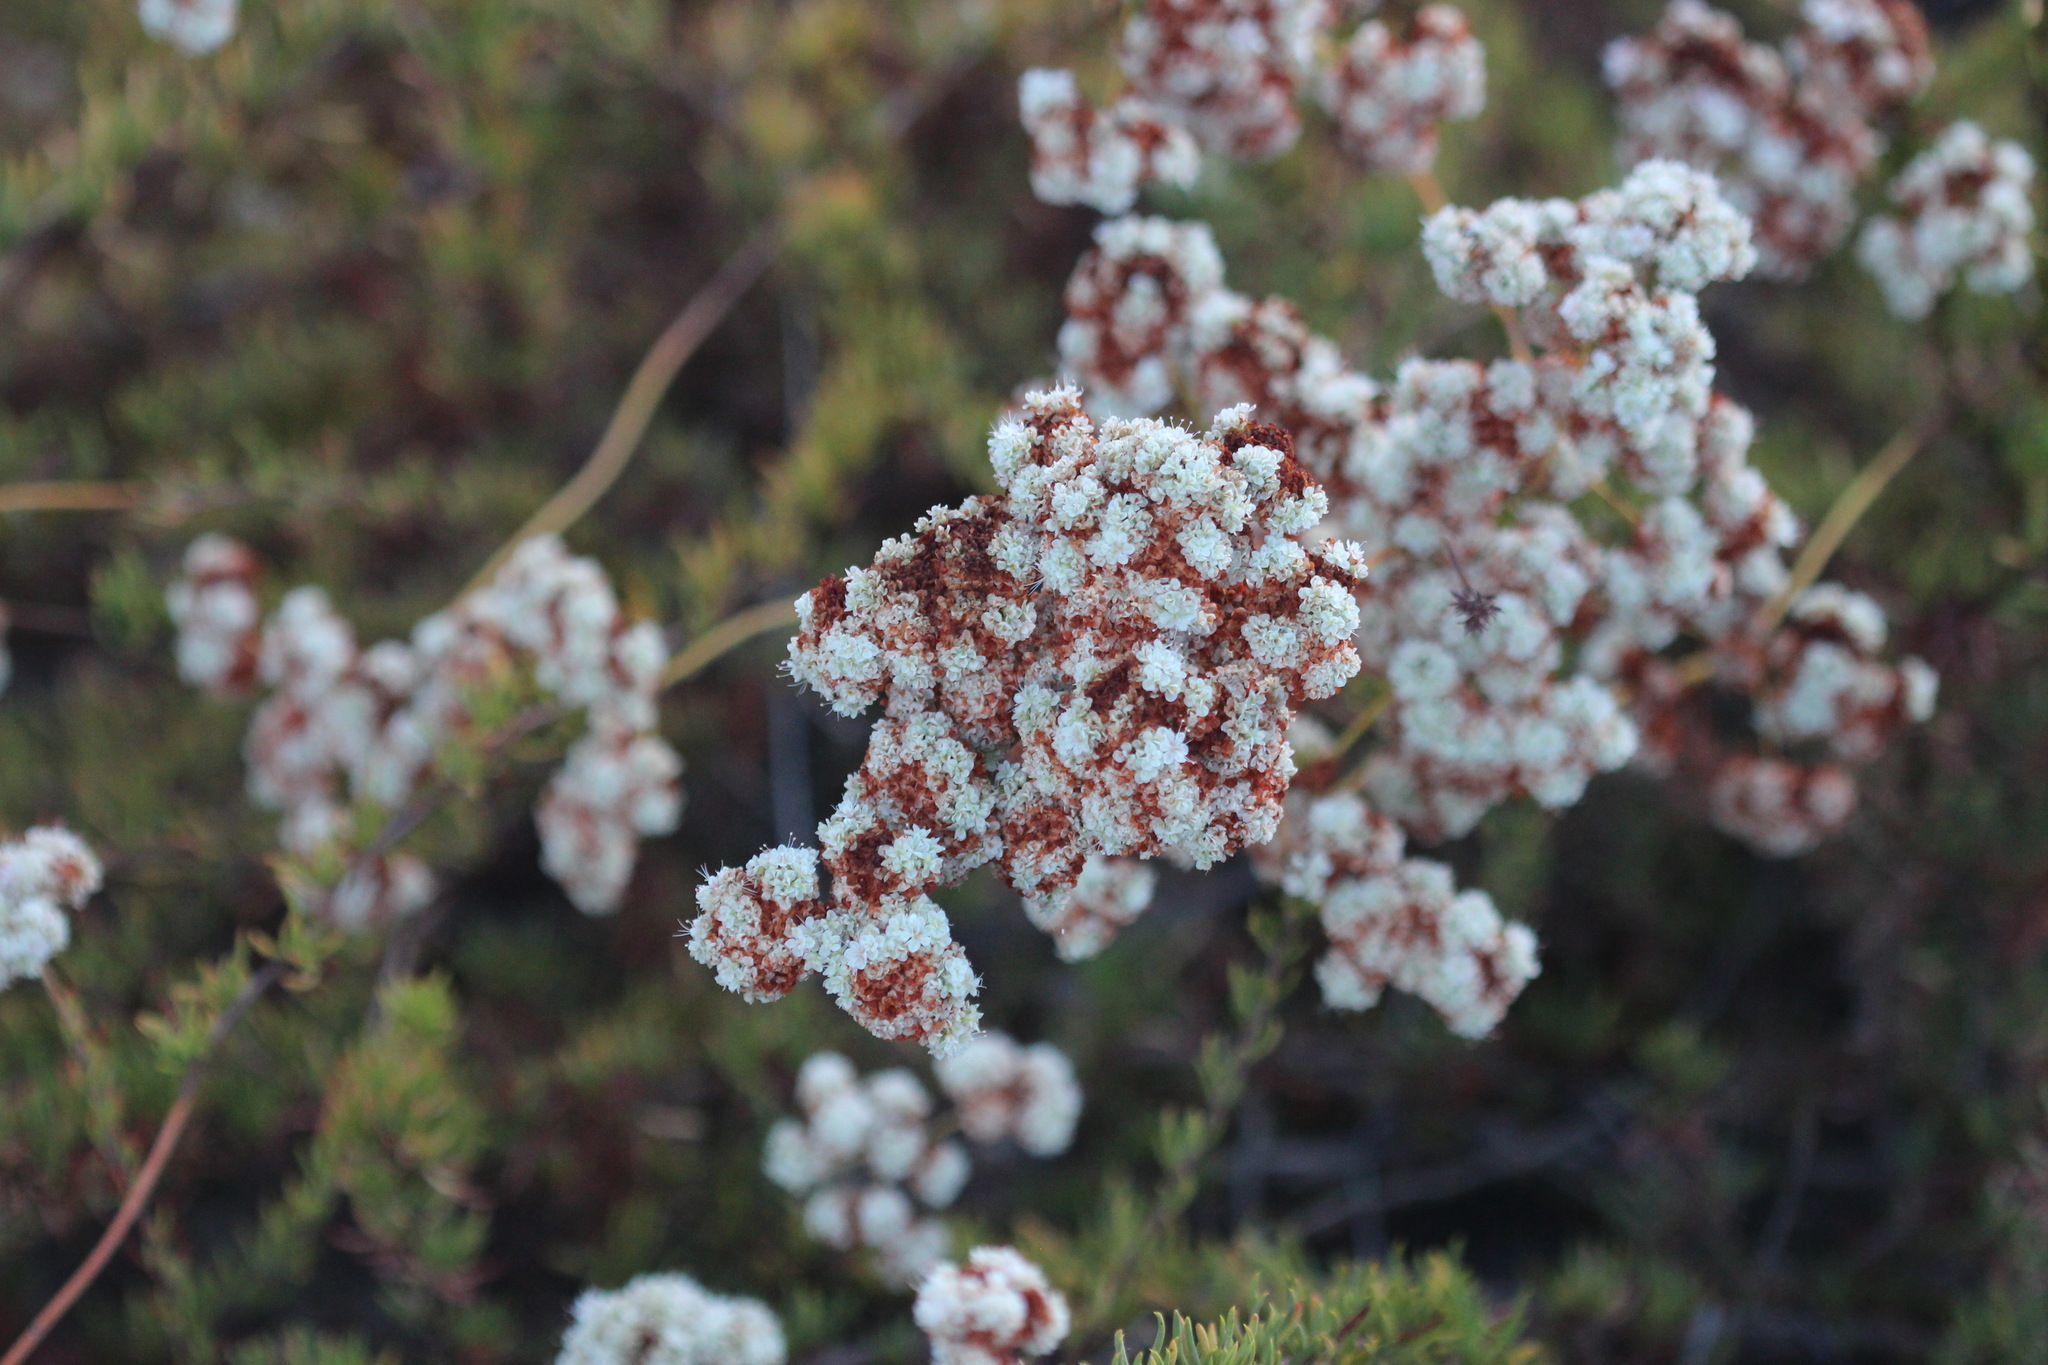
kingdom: Plantae
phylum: Tracheophyta
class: Magnoliopsida
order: Caryophyllales
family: Polygonaceae
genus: Eriogonum
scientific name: Eriogonum fasciculatum
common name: California wild buckwheat
